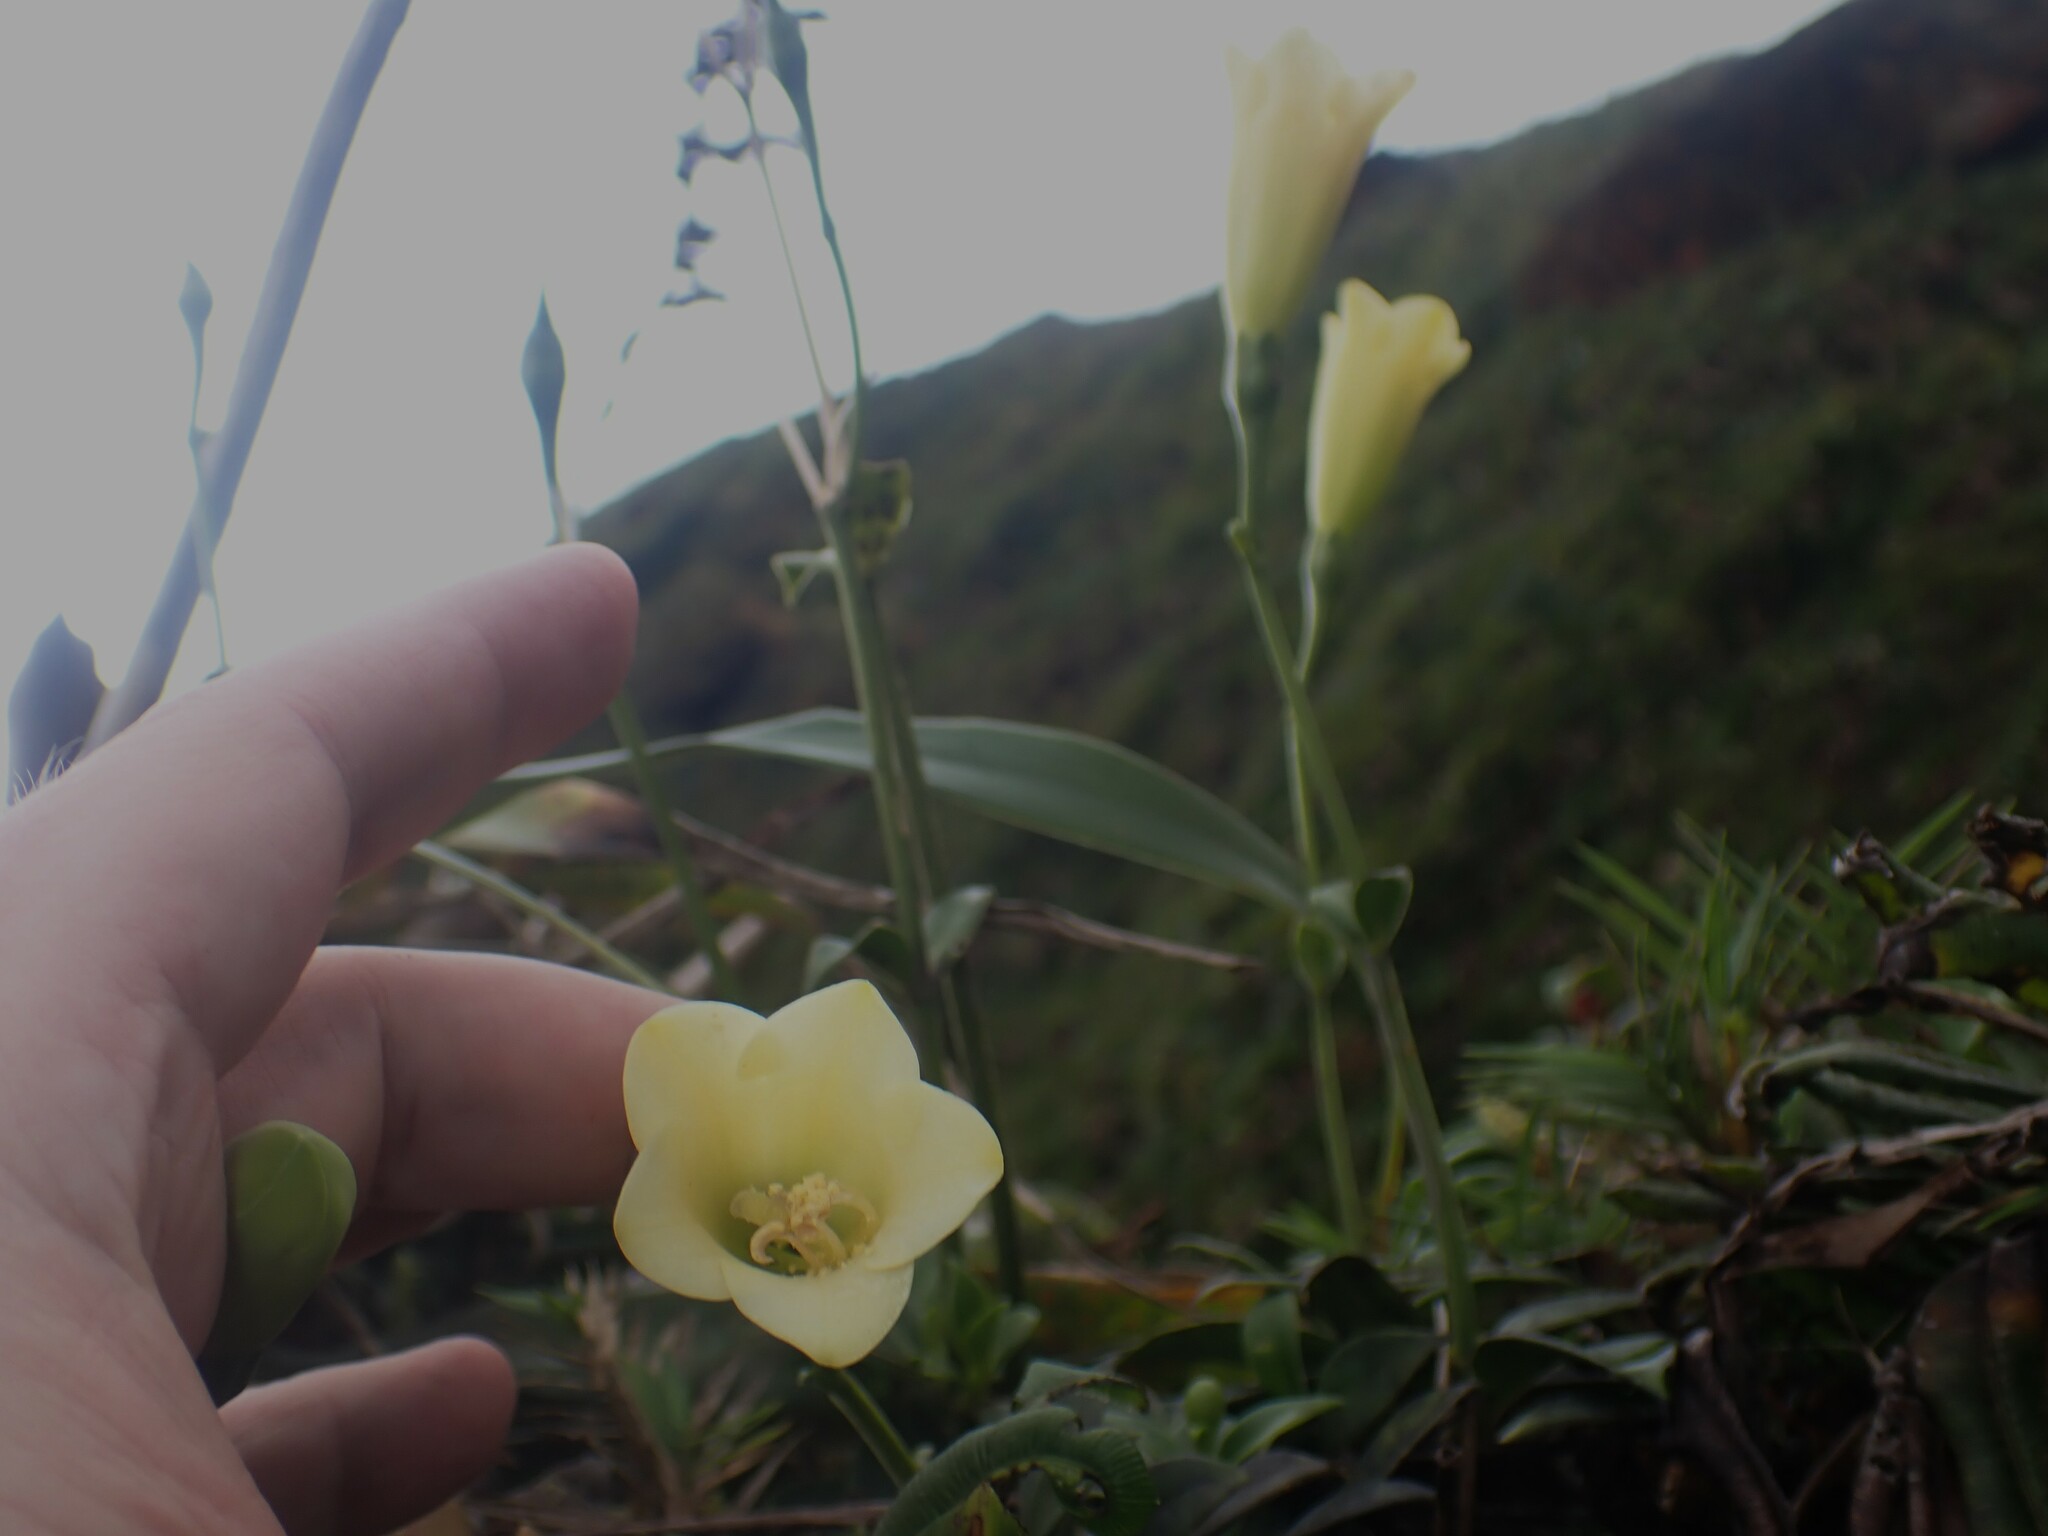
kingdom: Plantae
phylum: Tracheophyta
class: Magnoliopsida
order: Gentianales
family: Gentianaceae
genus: Symbolanthus
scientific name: Symbolanthus frigidus
